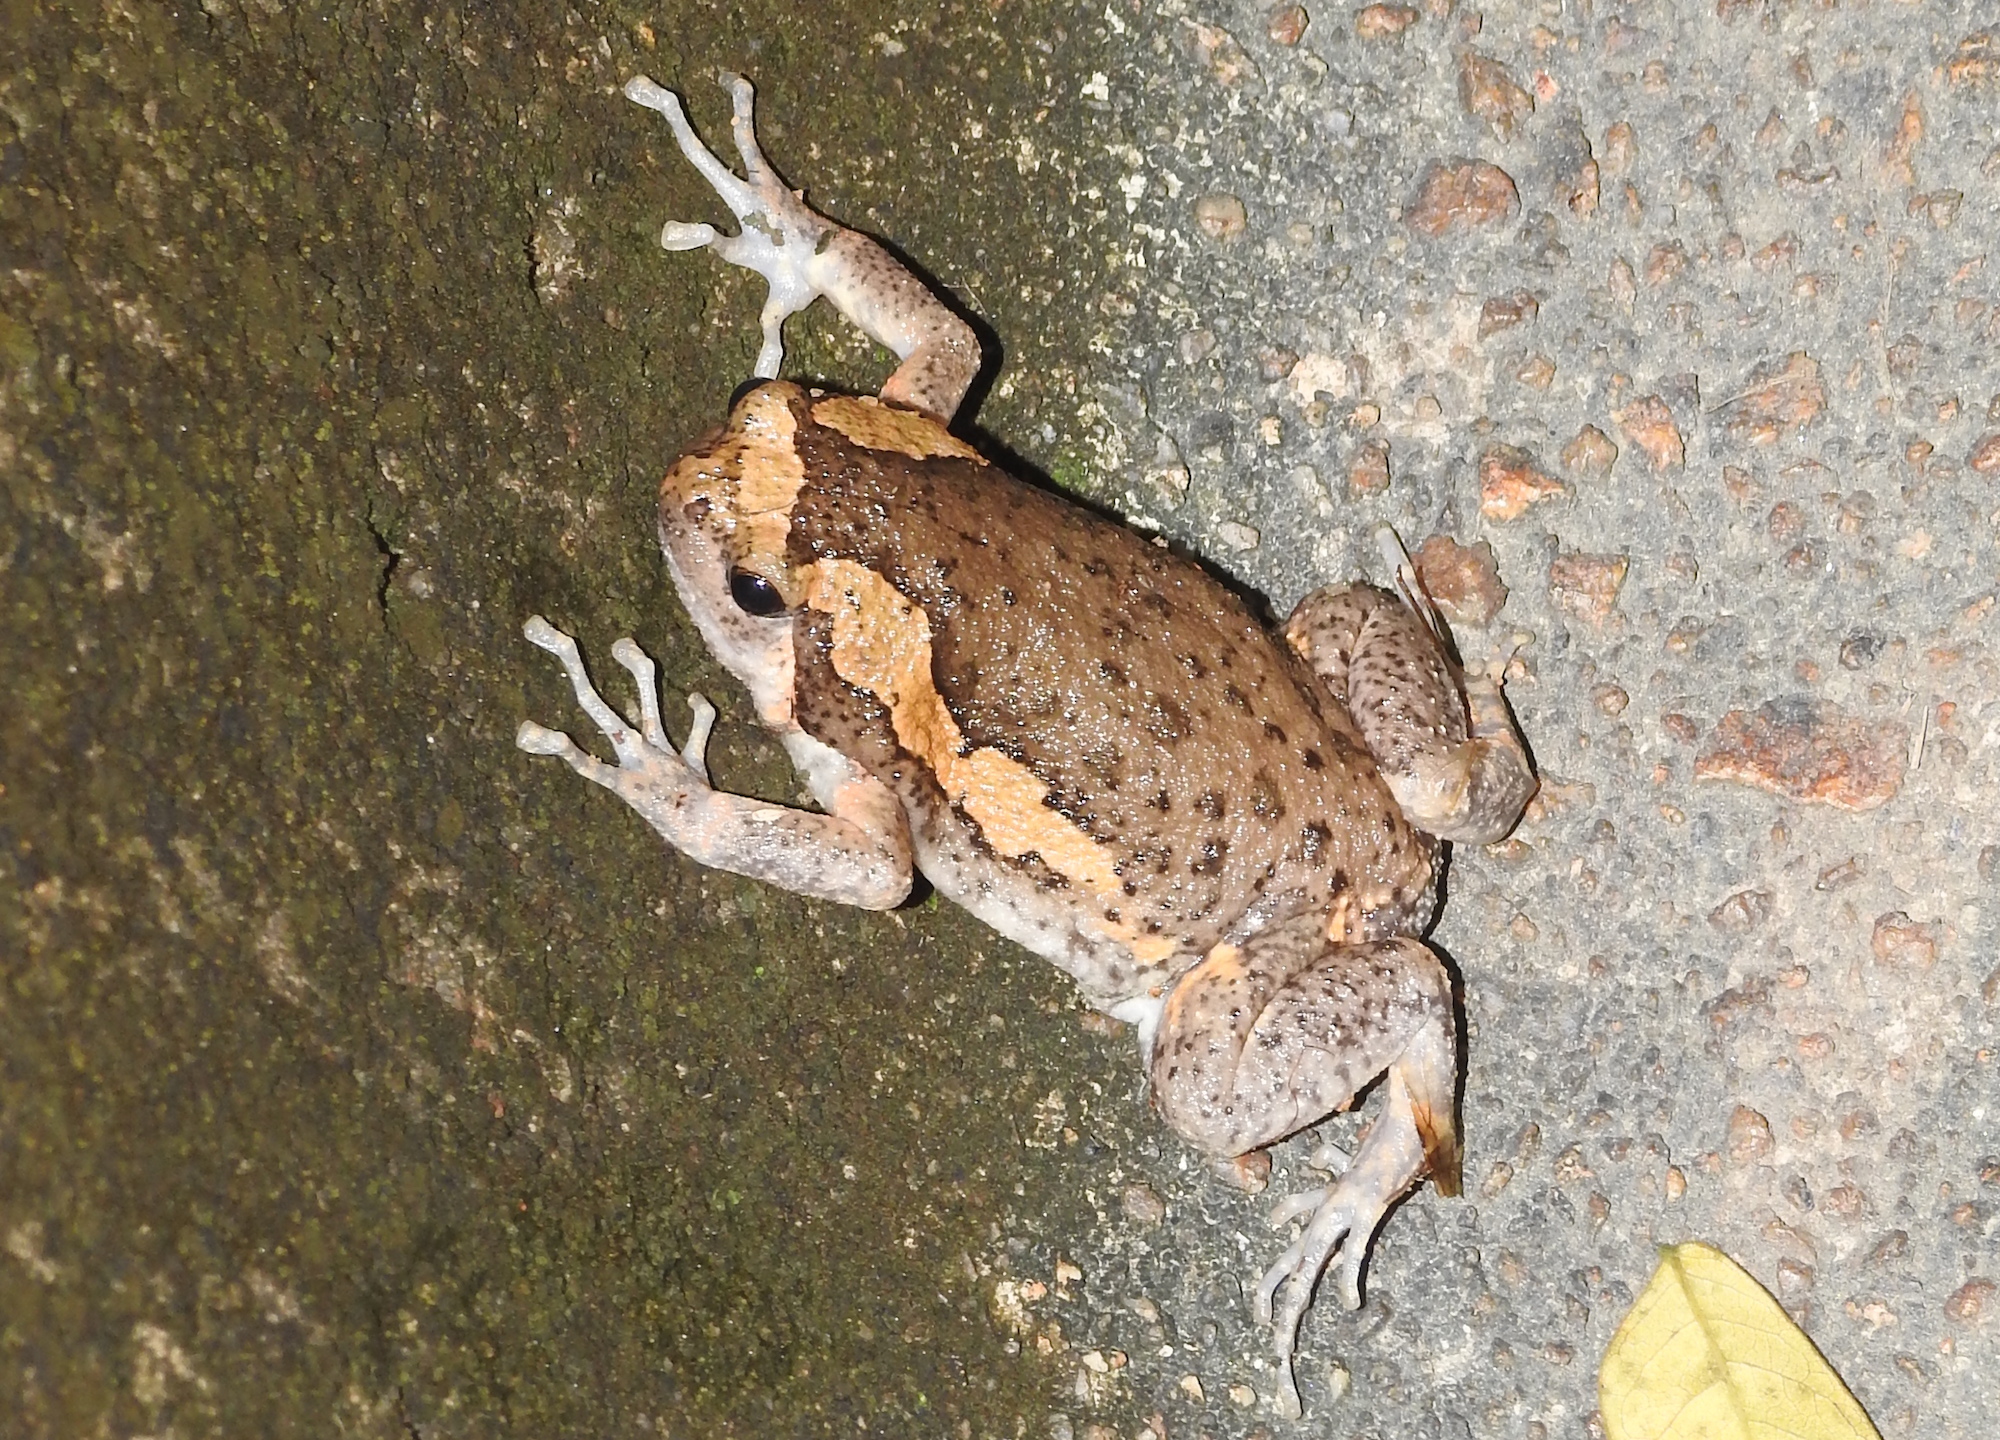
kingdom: Animalia
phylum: Chordata
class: Amphibia
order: Anura
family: Microhylidae
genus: Kaloula
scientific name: Kaloula pulchra
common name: Common,banded bullfrog
